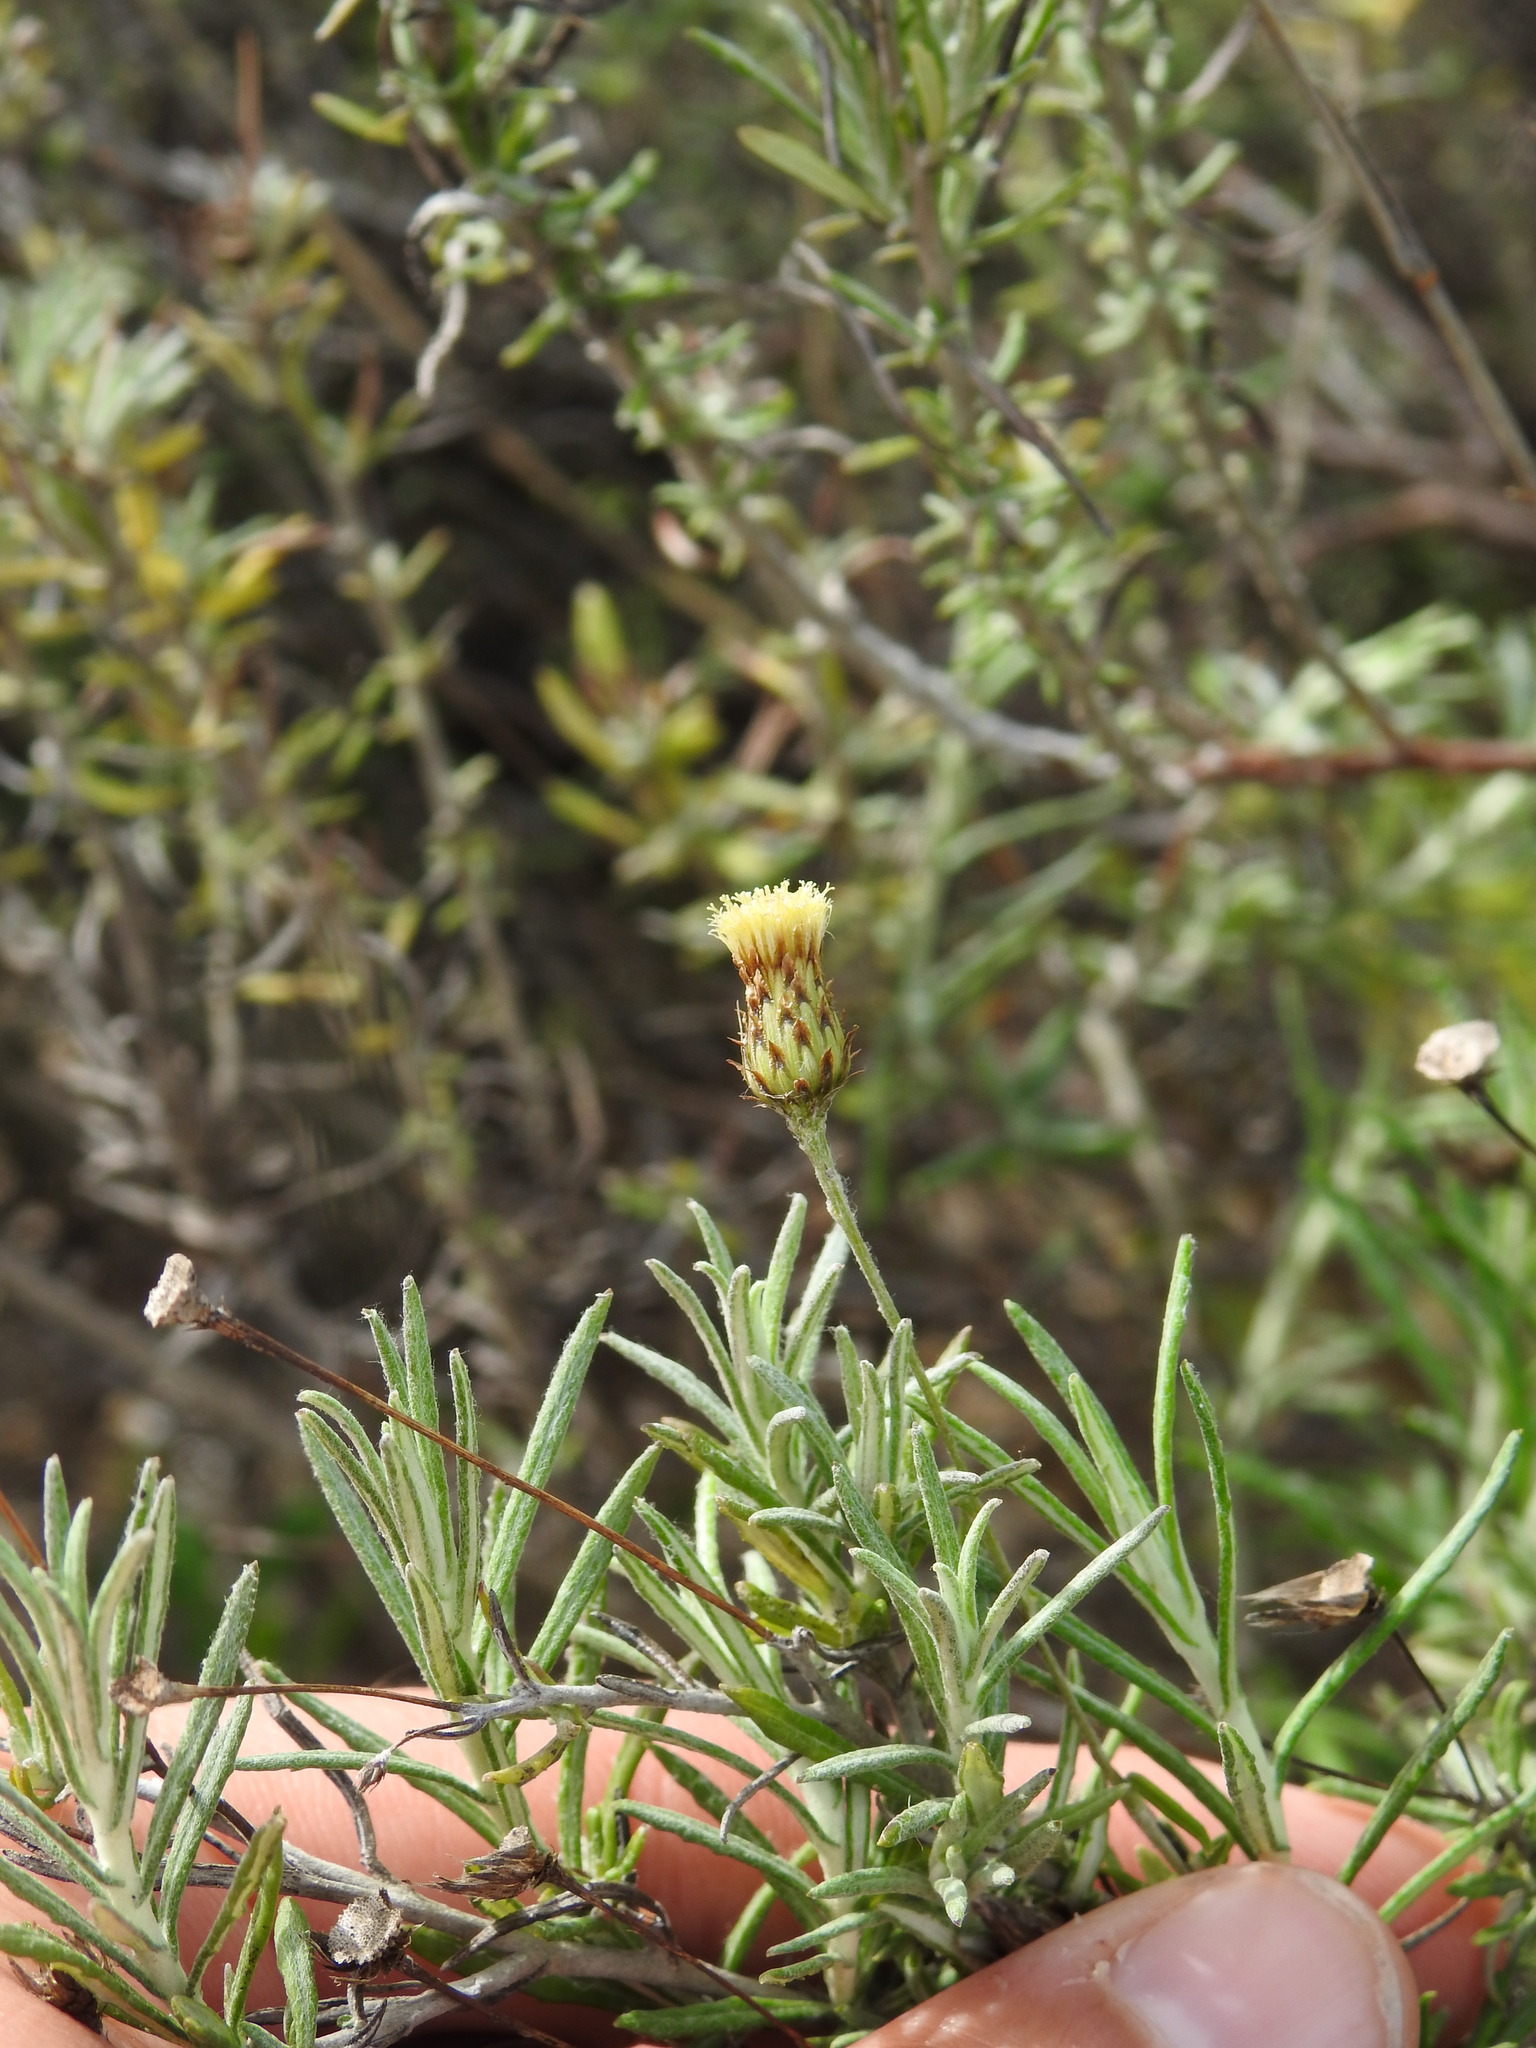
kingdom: Plantae
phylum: Tracheophyta
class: Magnoliopsida
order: Asterales
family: Asteraceae
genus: Phagnalon
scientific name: Phagnalon saxatile
